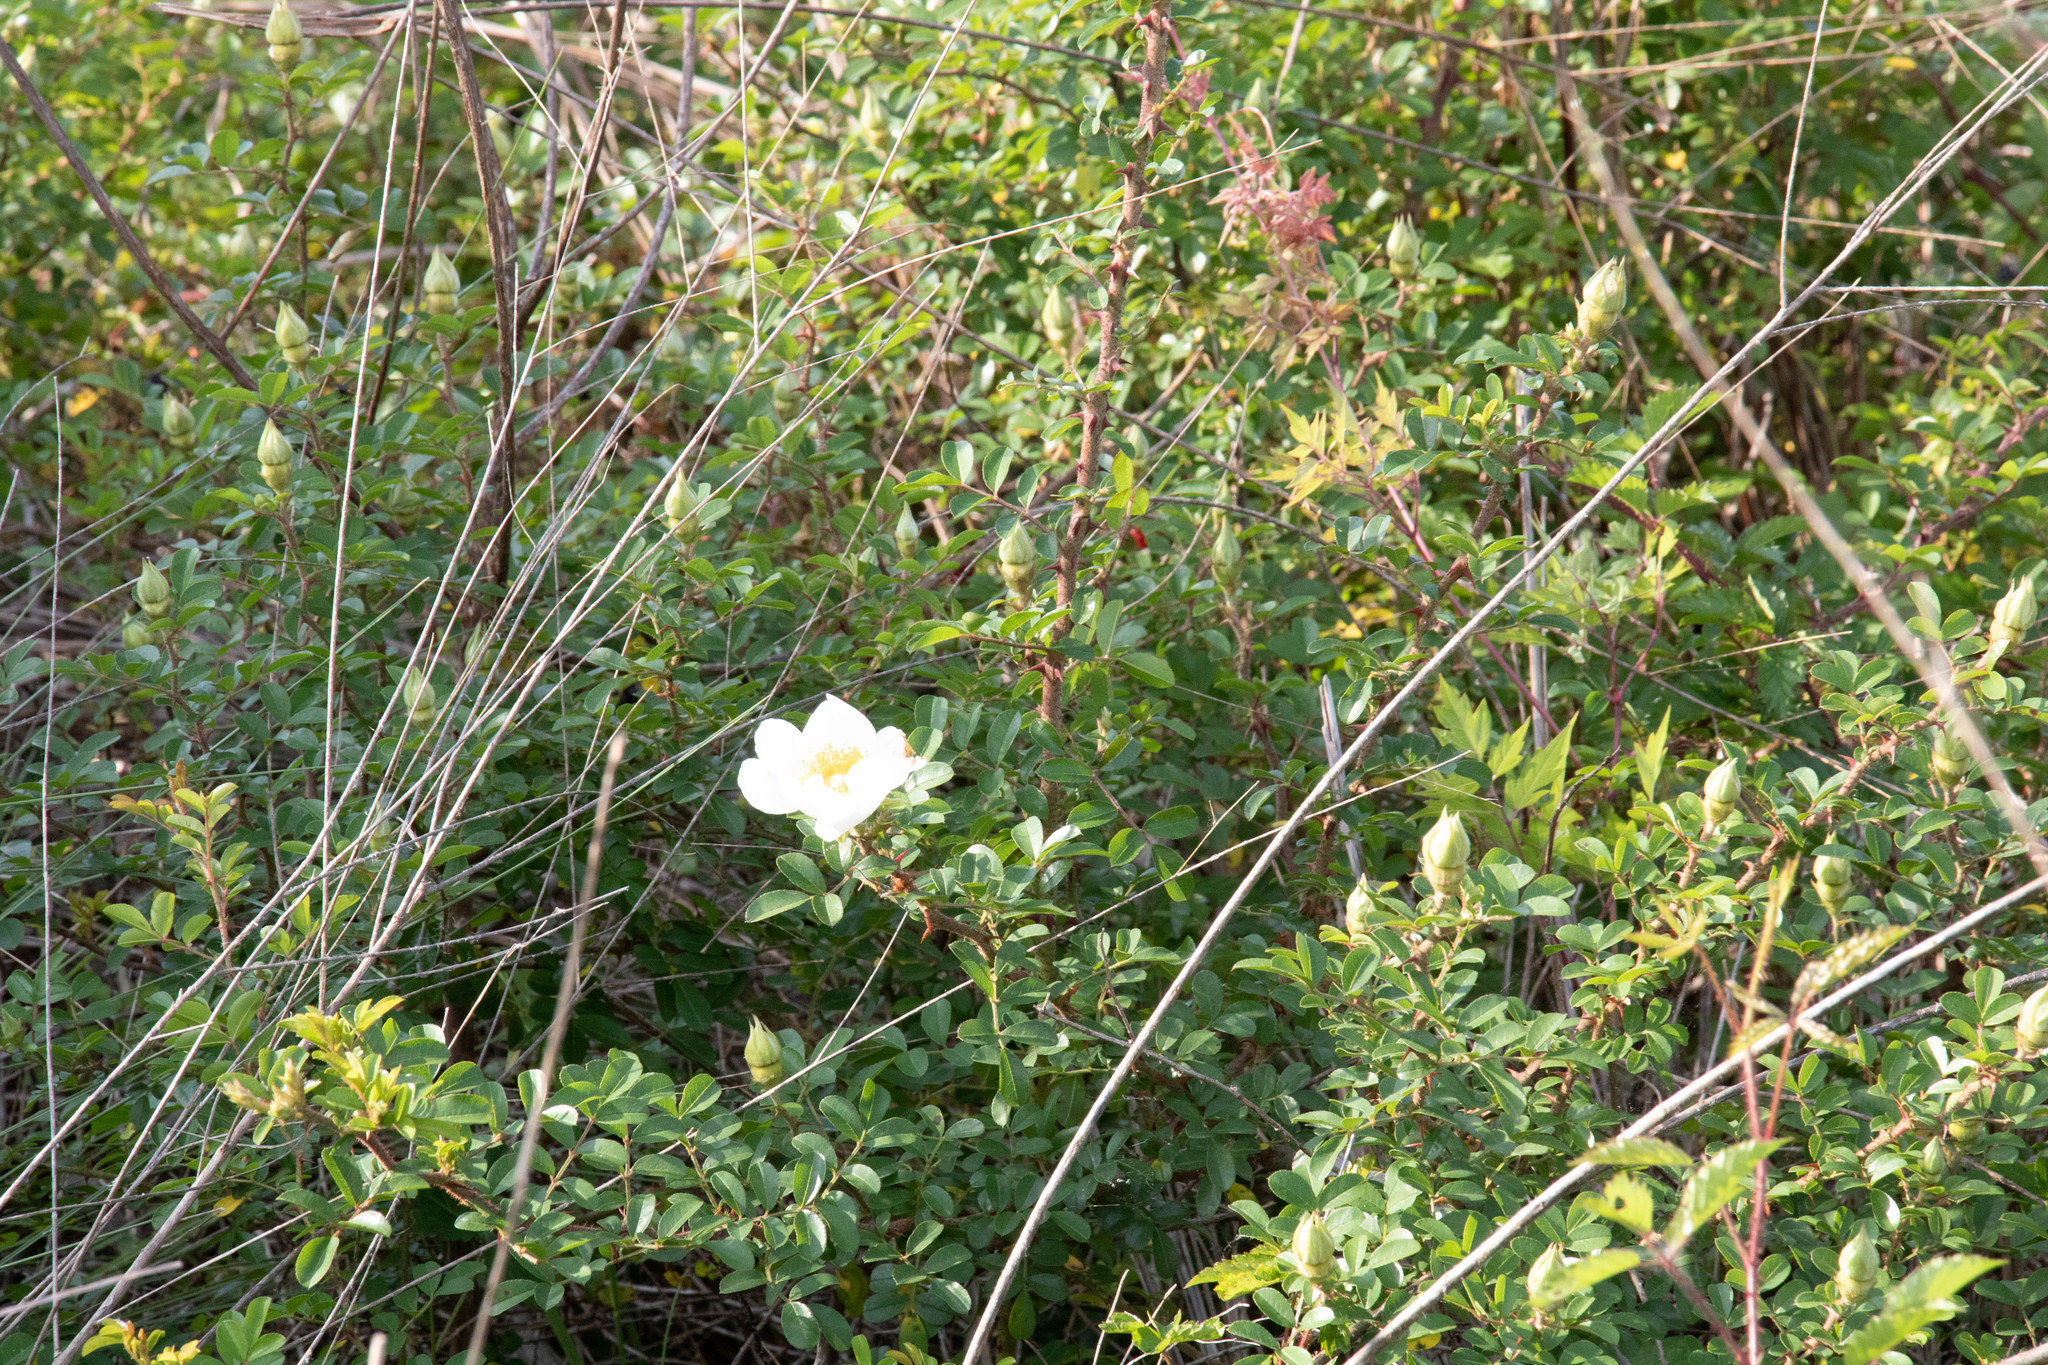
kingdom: Plantae
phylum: Tracheophyta
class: Magnoliopsida
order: Rosales
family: Rosaceae
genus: Rosa
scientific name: Rosa bracteata
